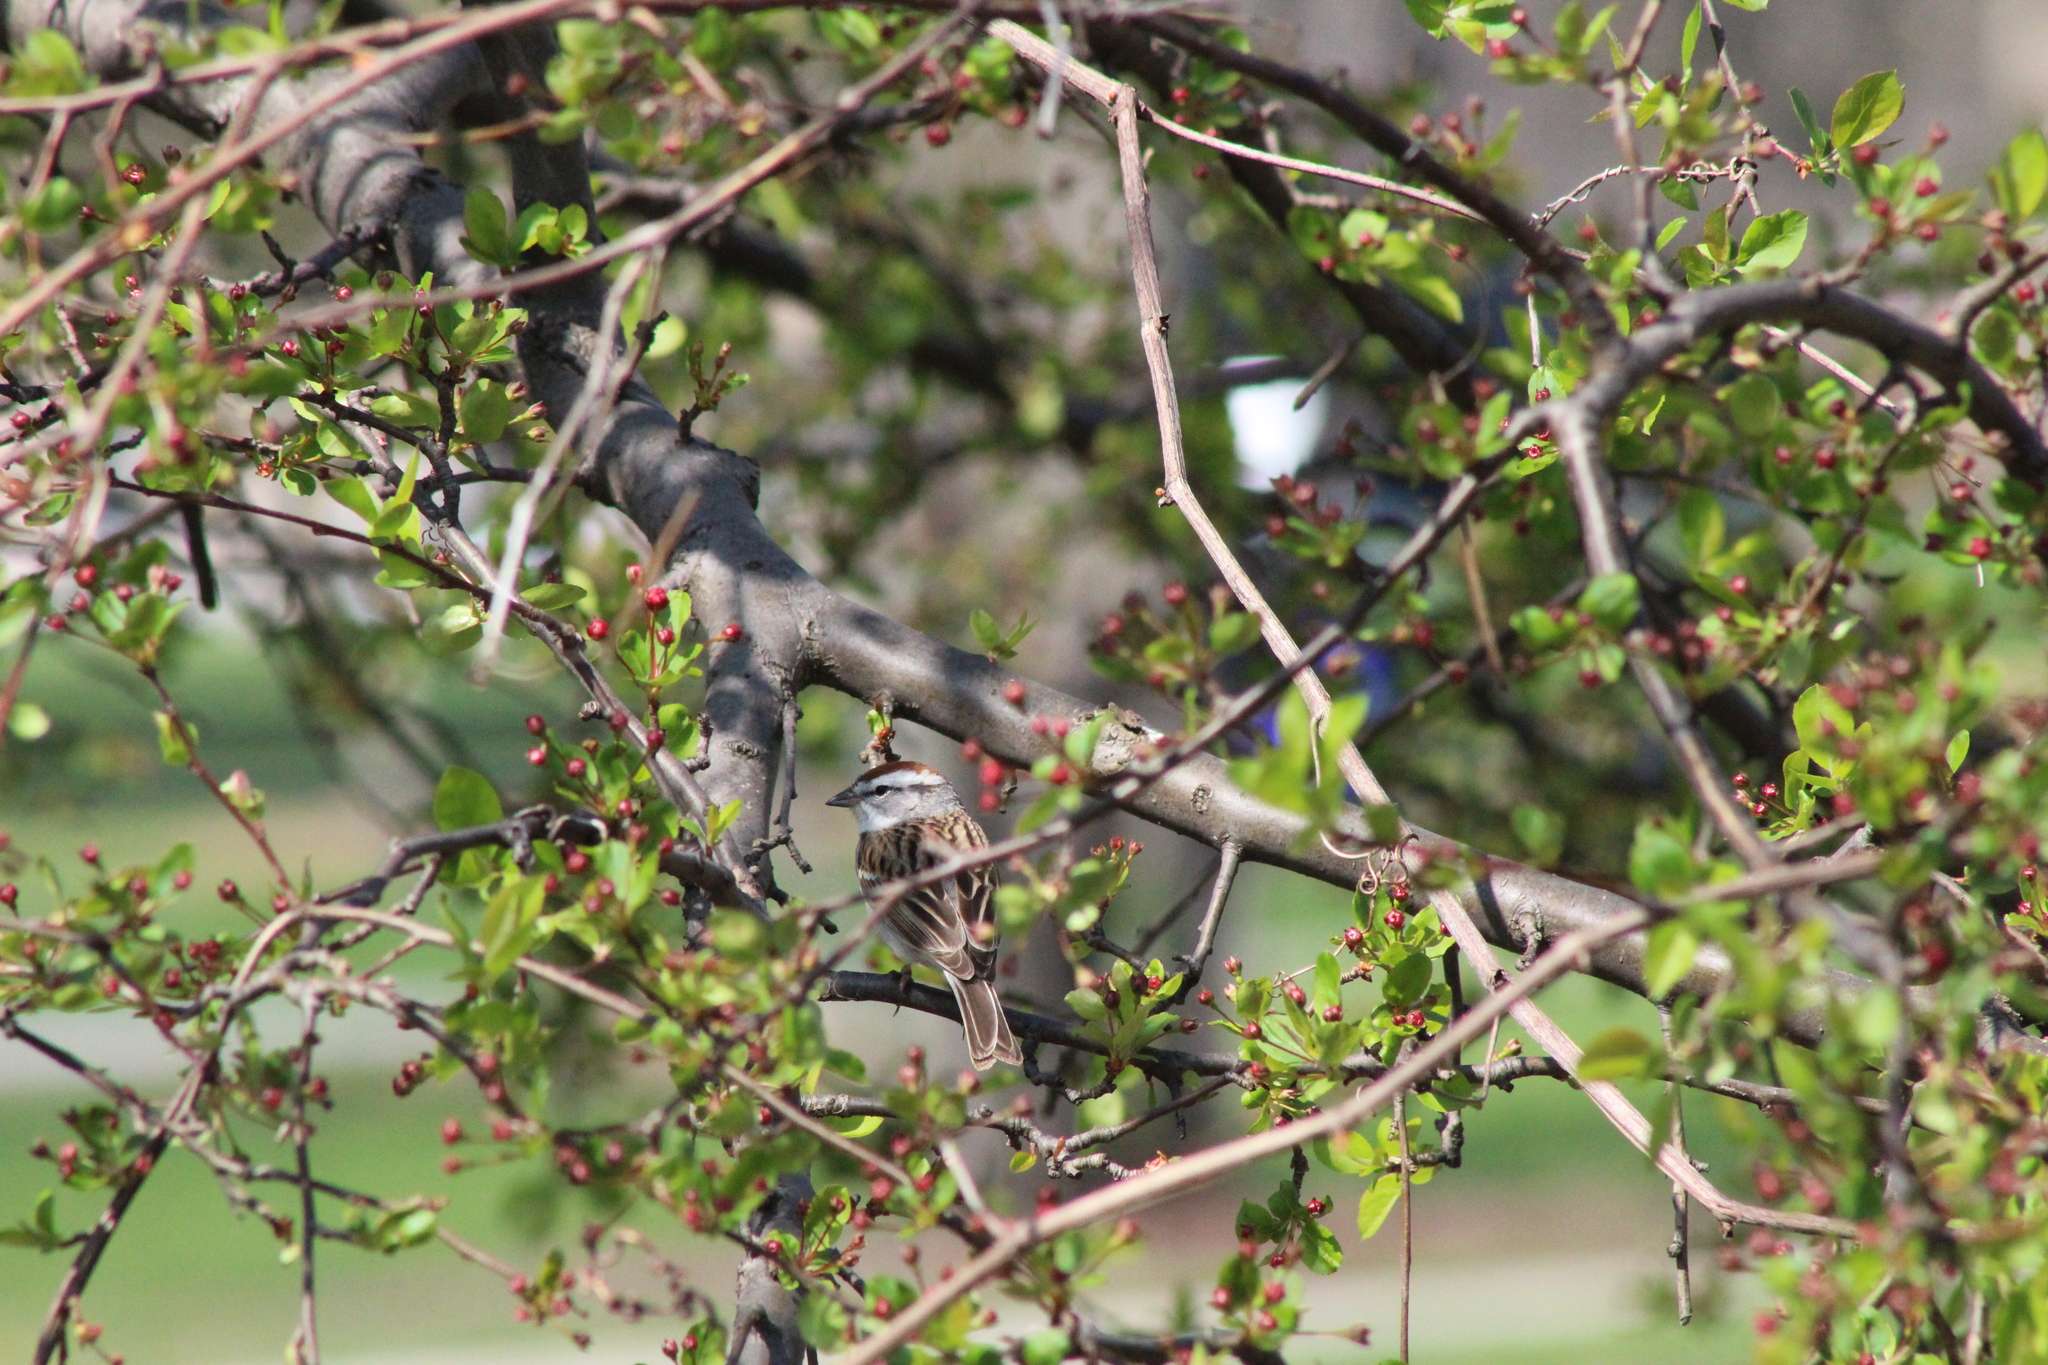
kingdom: Animalia
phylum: Chordata
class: Aves
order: Passeriformes
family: Passerellidae
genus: Spizella
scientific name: Spizella passerina
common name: Chipping sparrow
